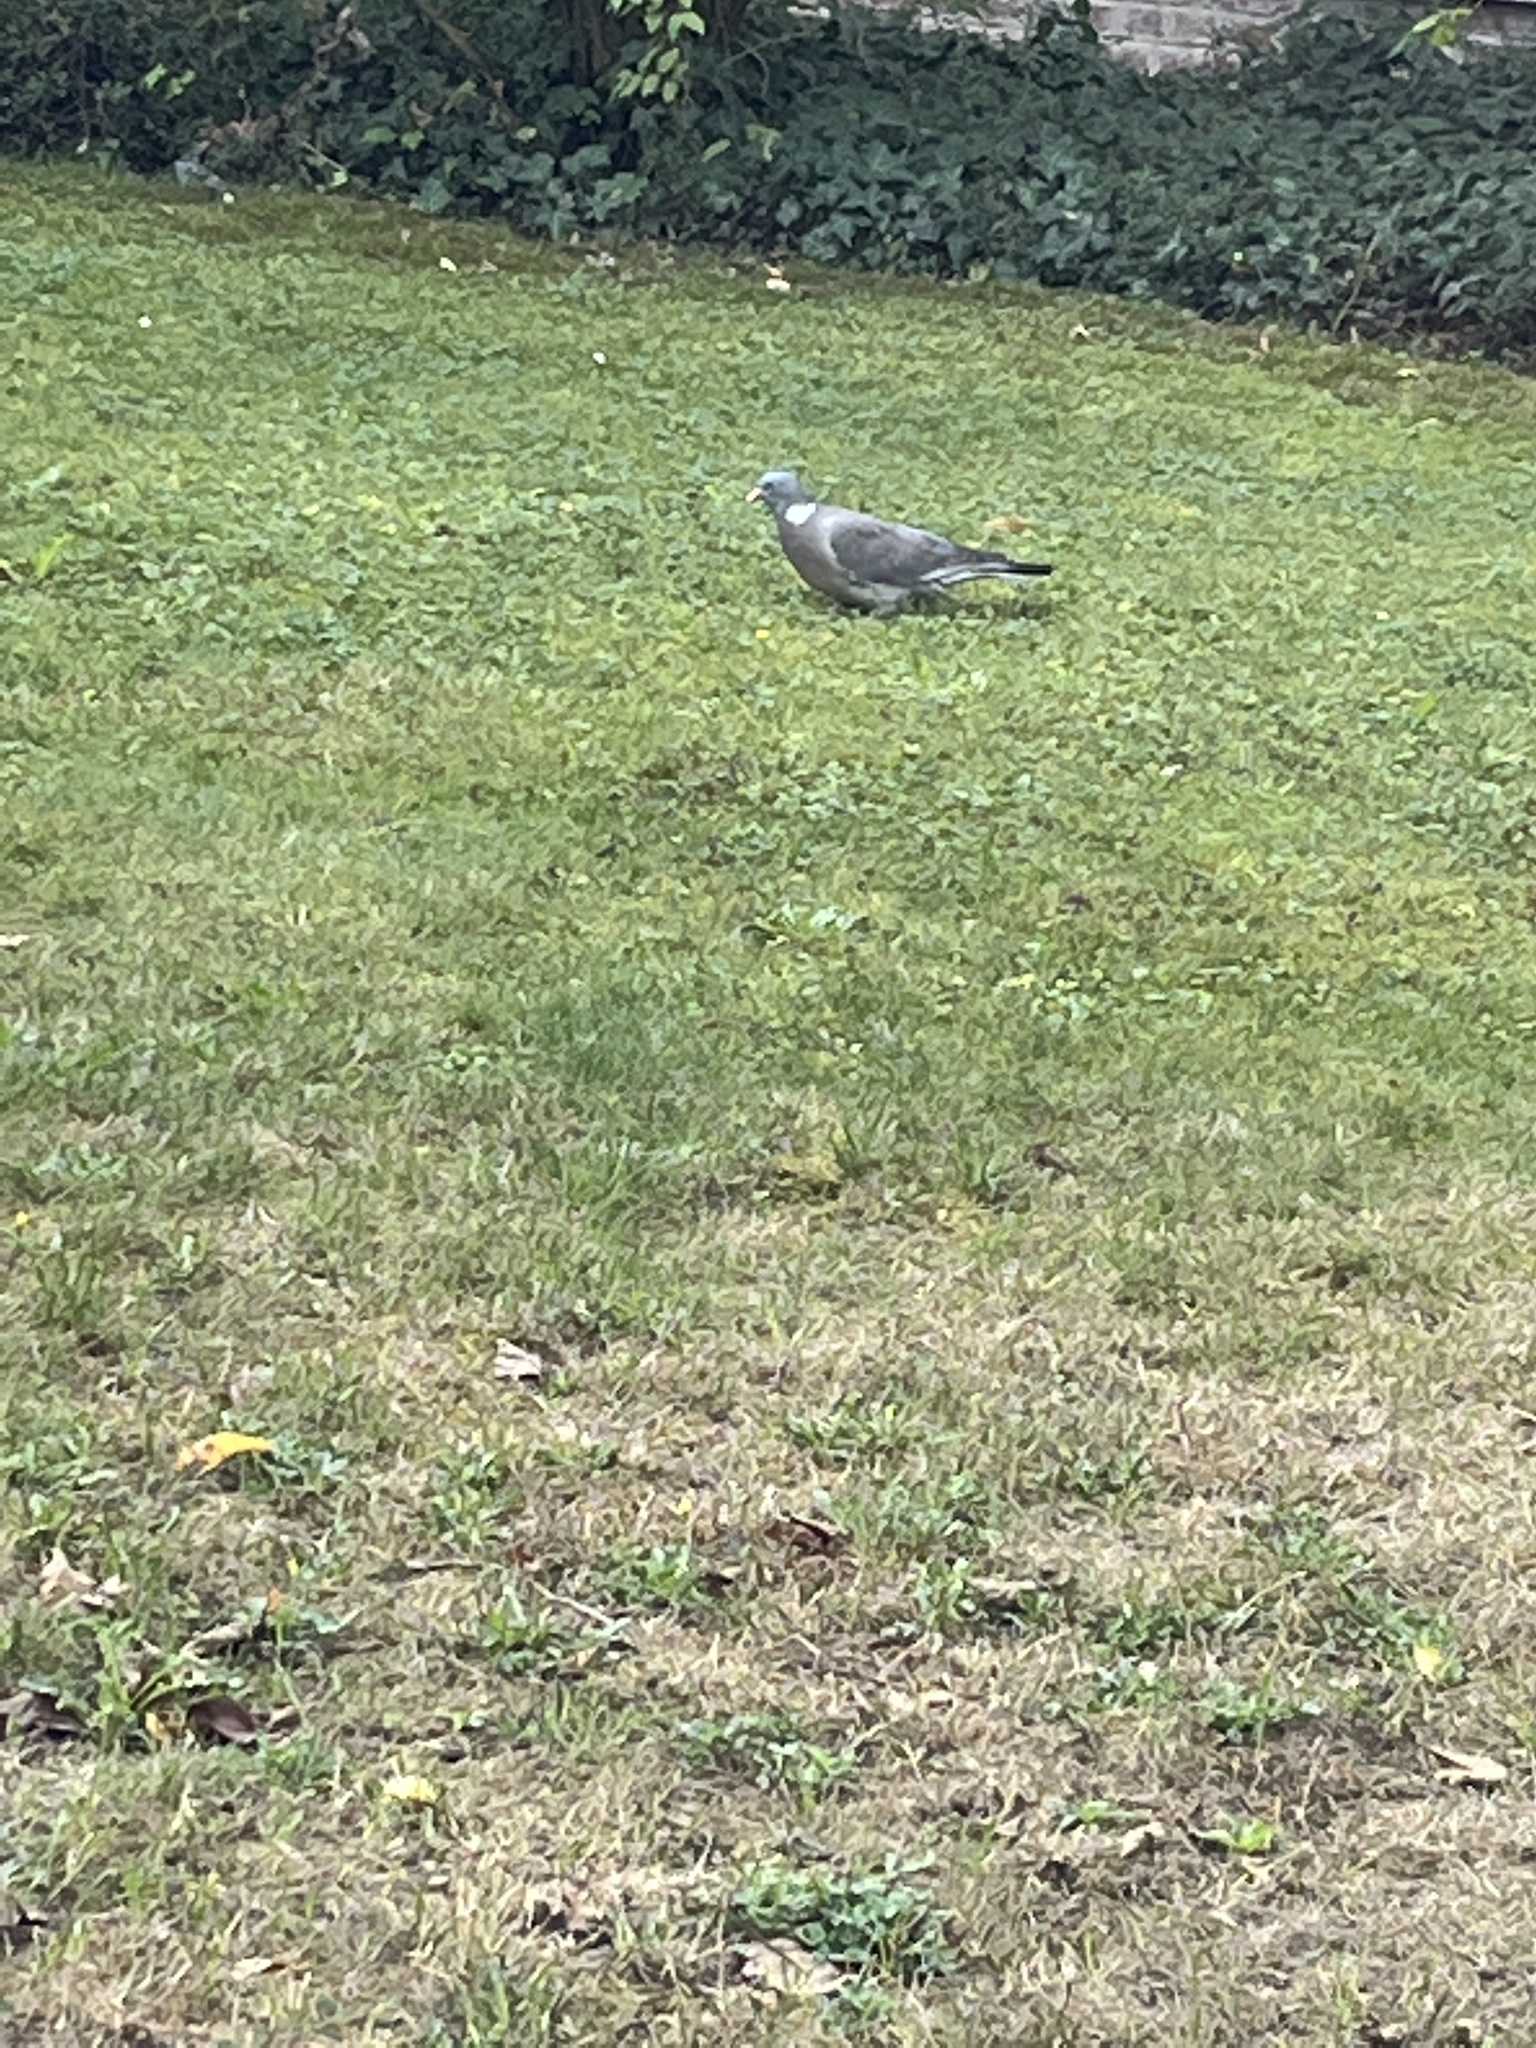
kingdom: Animalia
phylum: Chordata
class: Aves
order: Columbiformes
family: Columbidae
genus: Columba
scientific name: Columba palumbus
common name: Common wood pigeon
